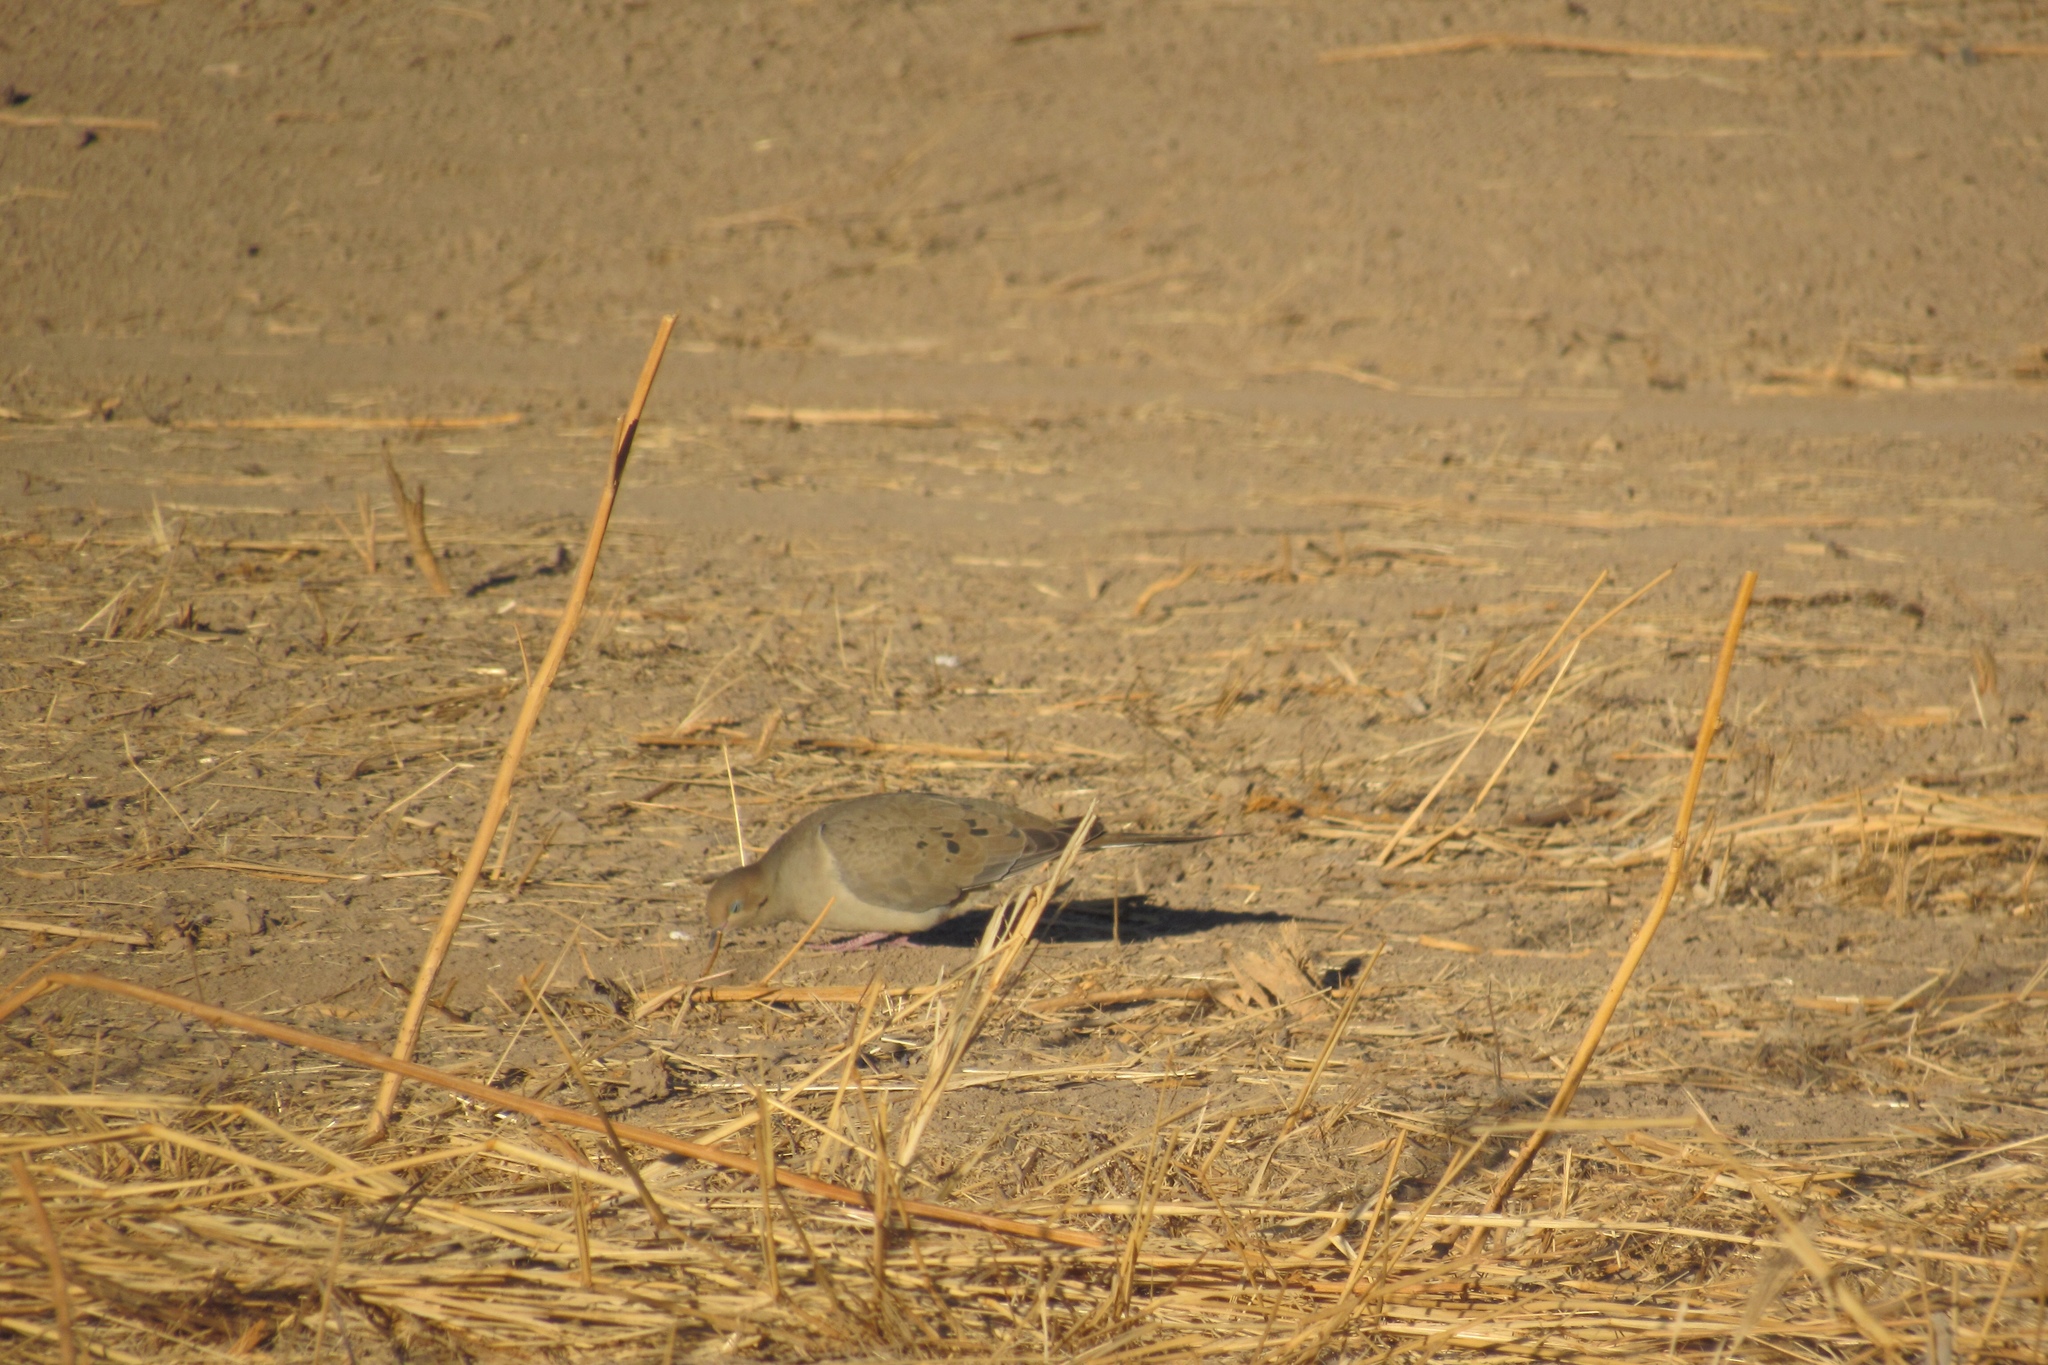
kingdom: Animalia
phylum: Chordata
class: Aves
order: Columbiformes
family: Columbidae
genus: Zenaida
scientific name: Zenaida macroura
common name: Mourning dove
